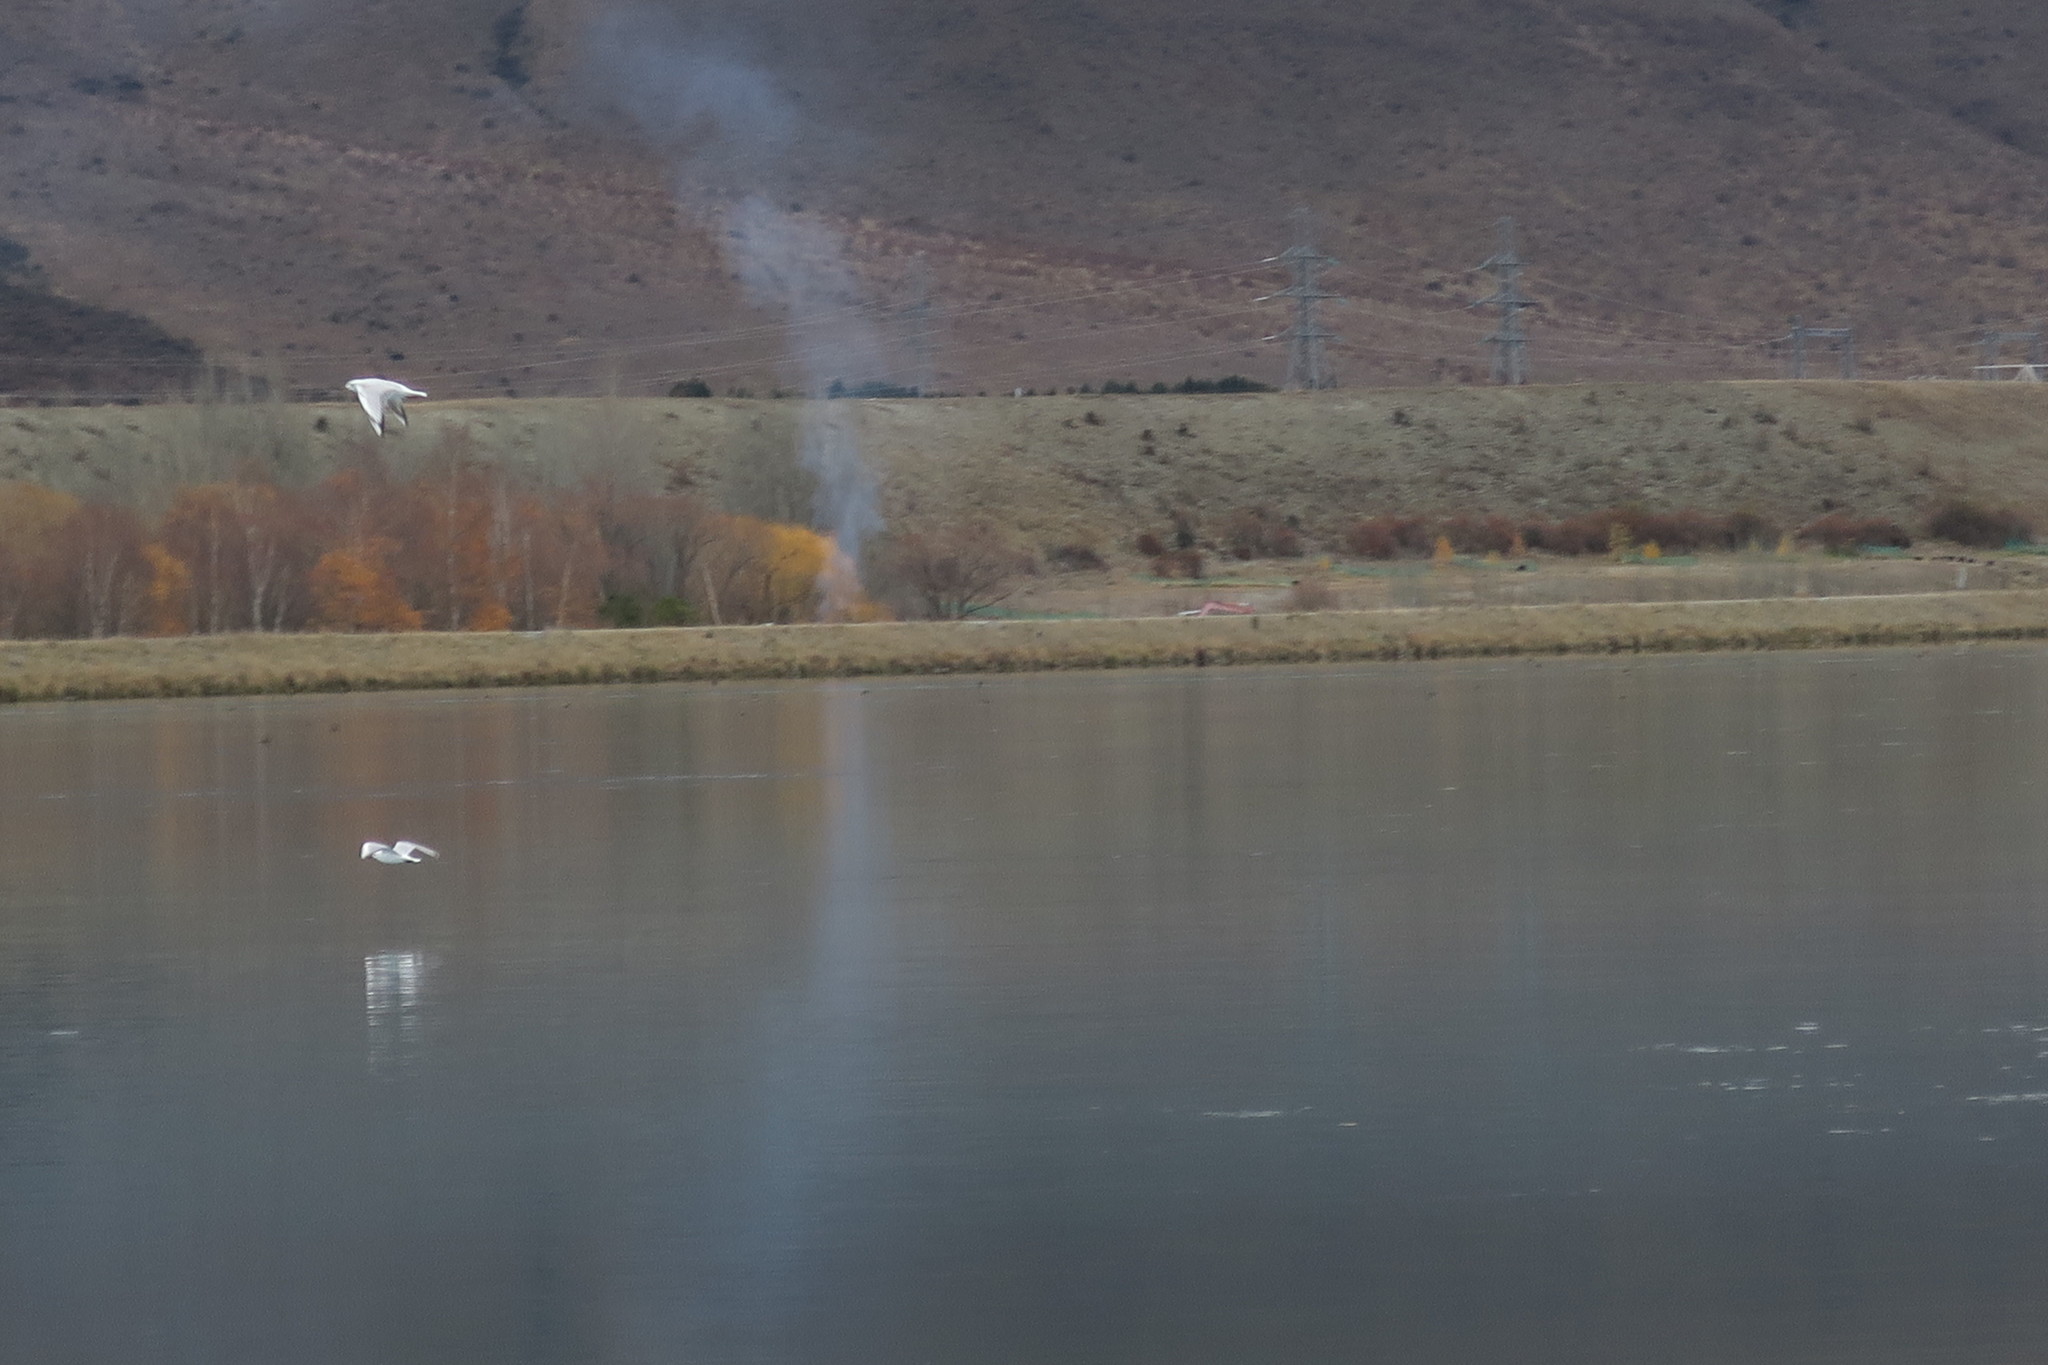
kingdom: Animalia
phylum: Chordata
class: Aves
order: Charadriiformes
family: Laridae
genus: Chroicocephalus
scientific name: Chroicocephalus bulleri
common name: Black-billed gull
